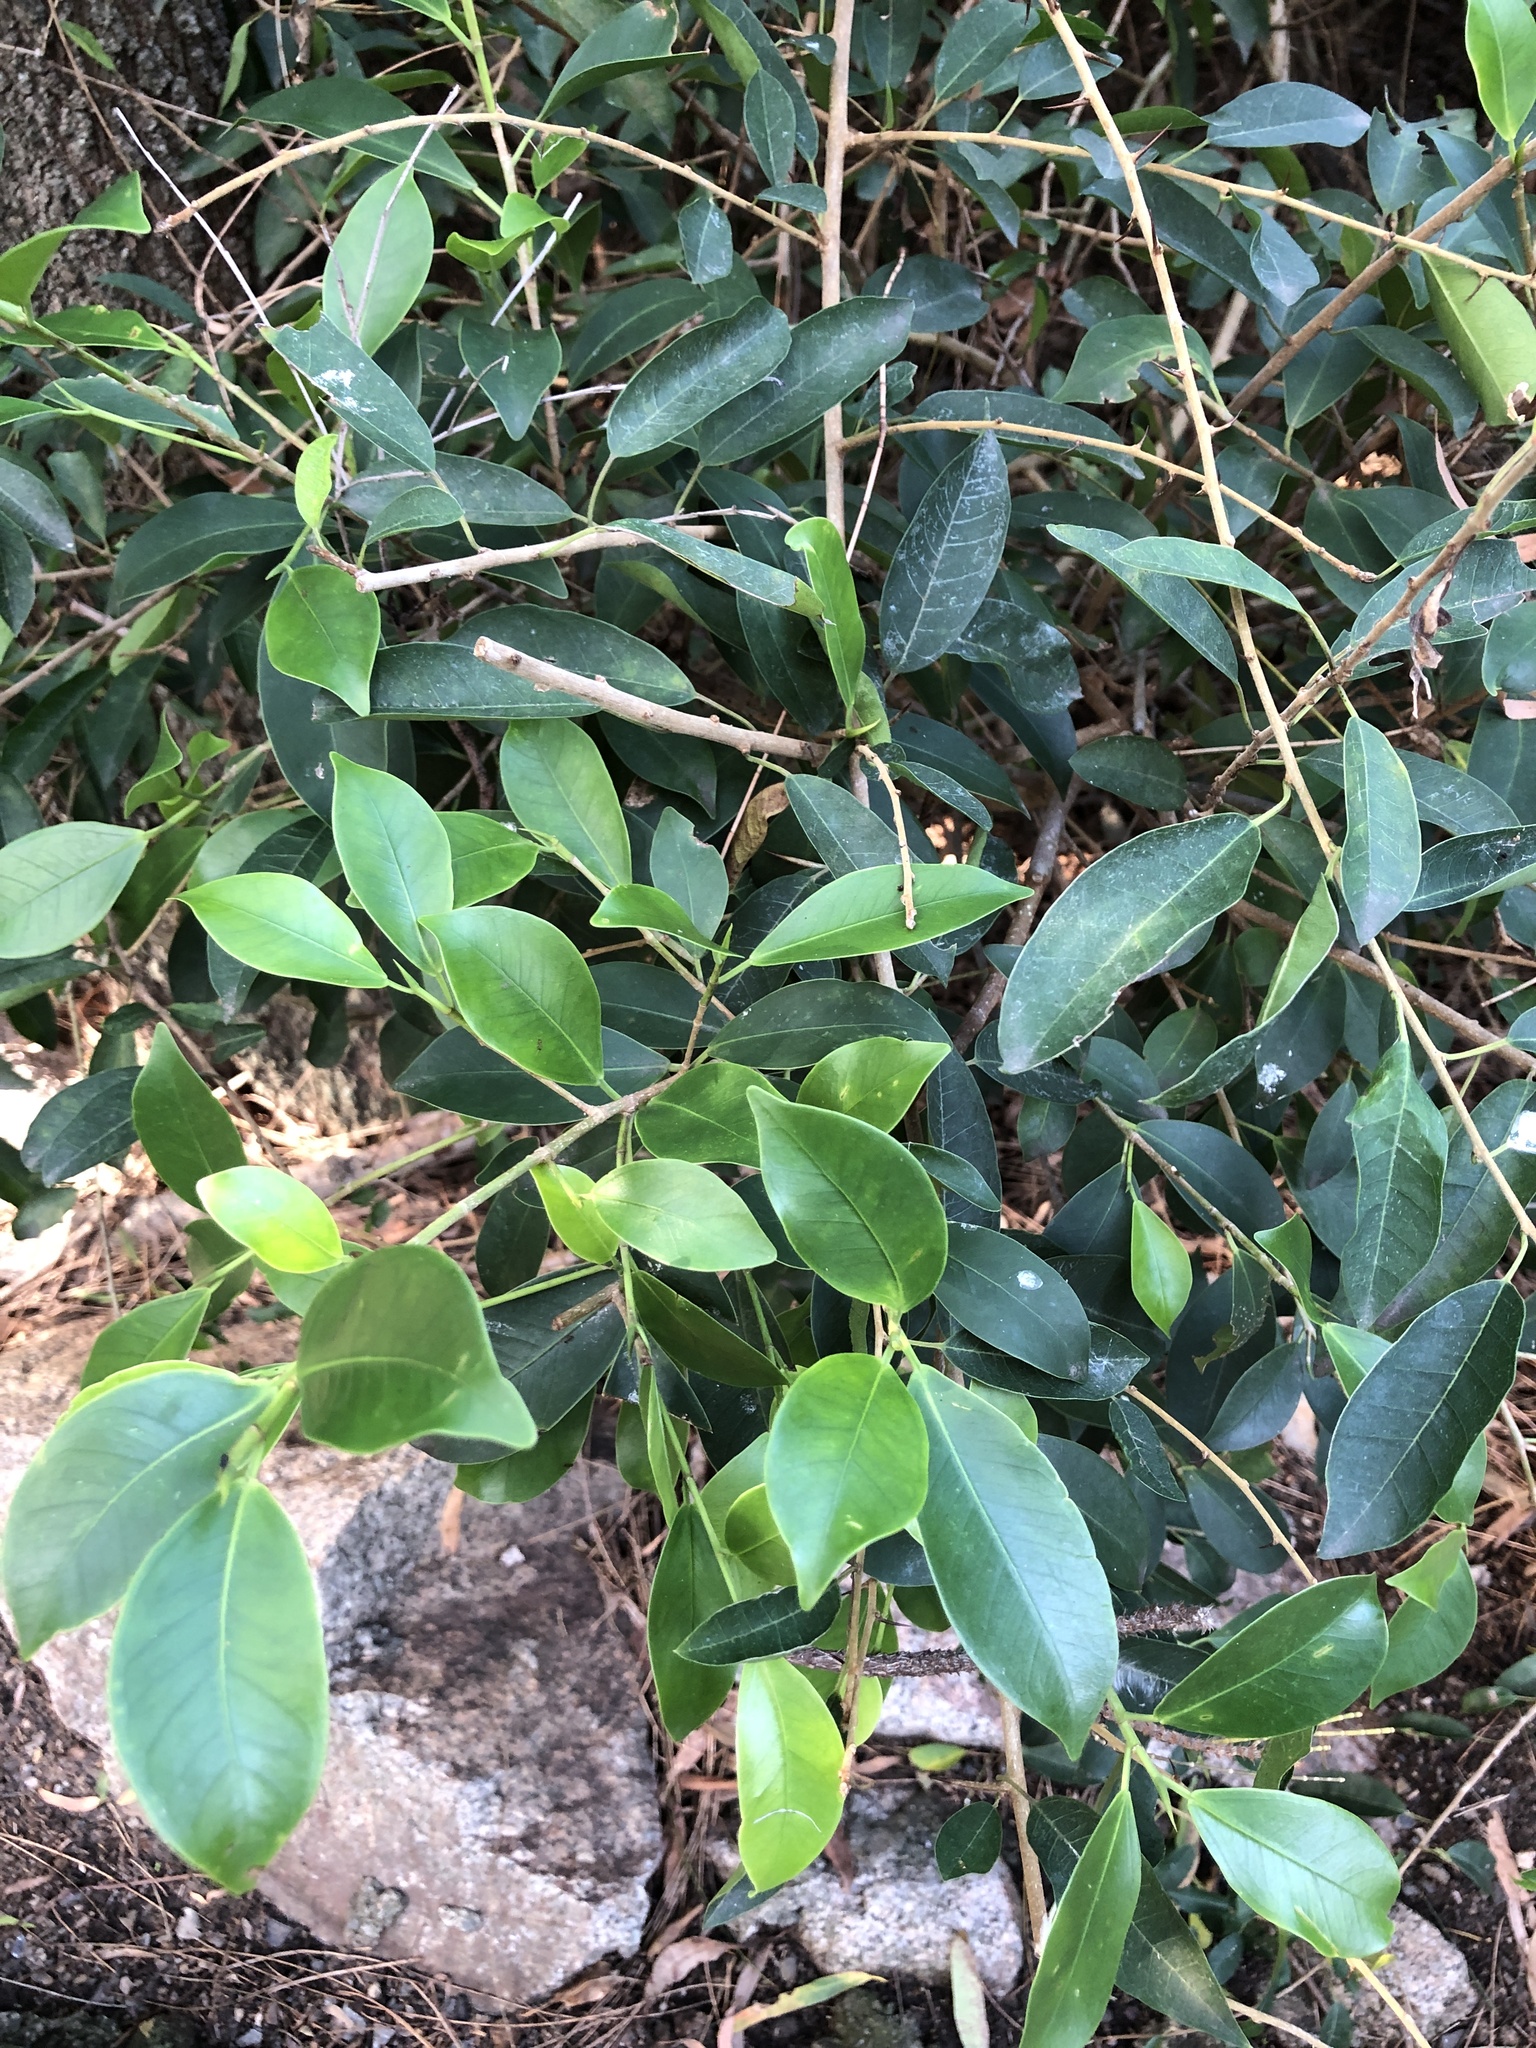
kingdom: Plantae
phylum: Tracheophyta
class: Magnoliopsida
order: Rosales
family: Moraceae
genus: Maclura
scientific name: Maclura cochinchinensis
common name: Cockspurthorn
